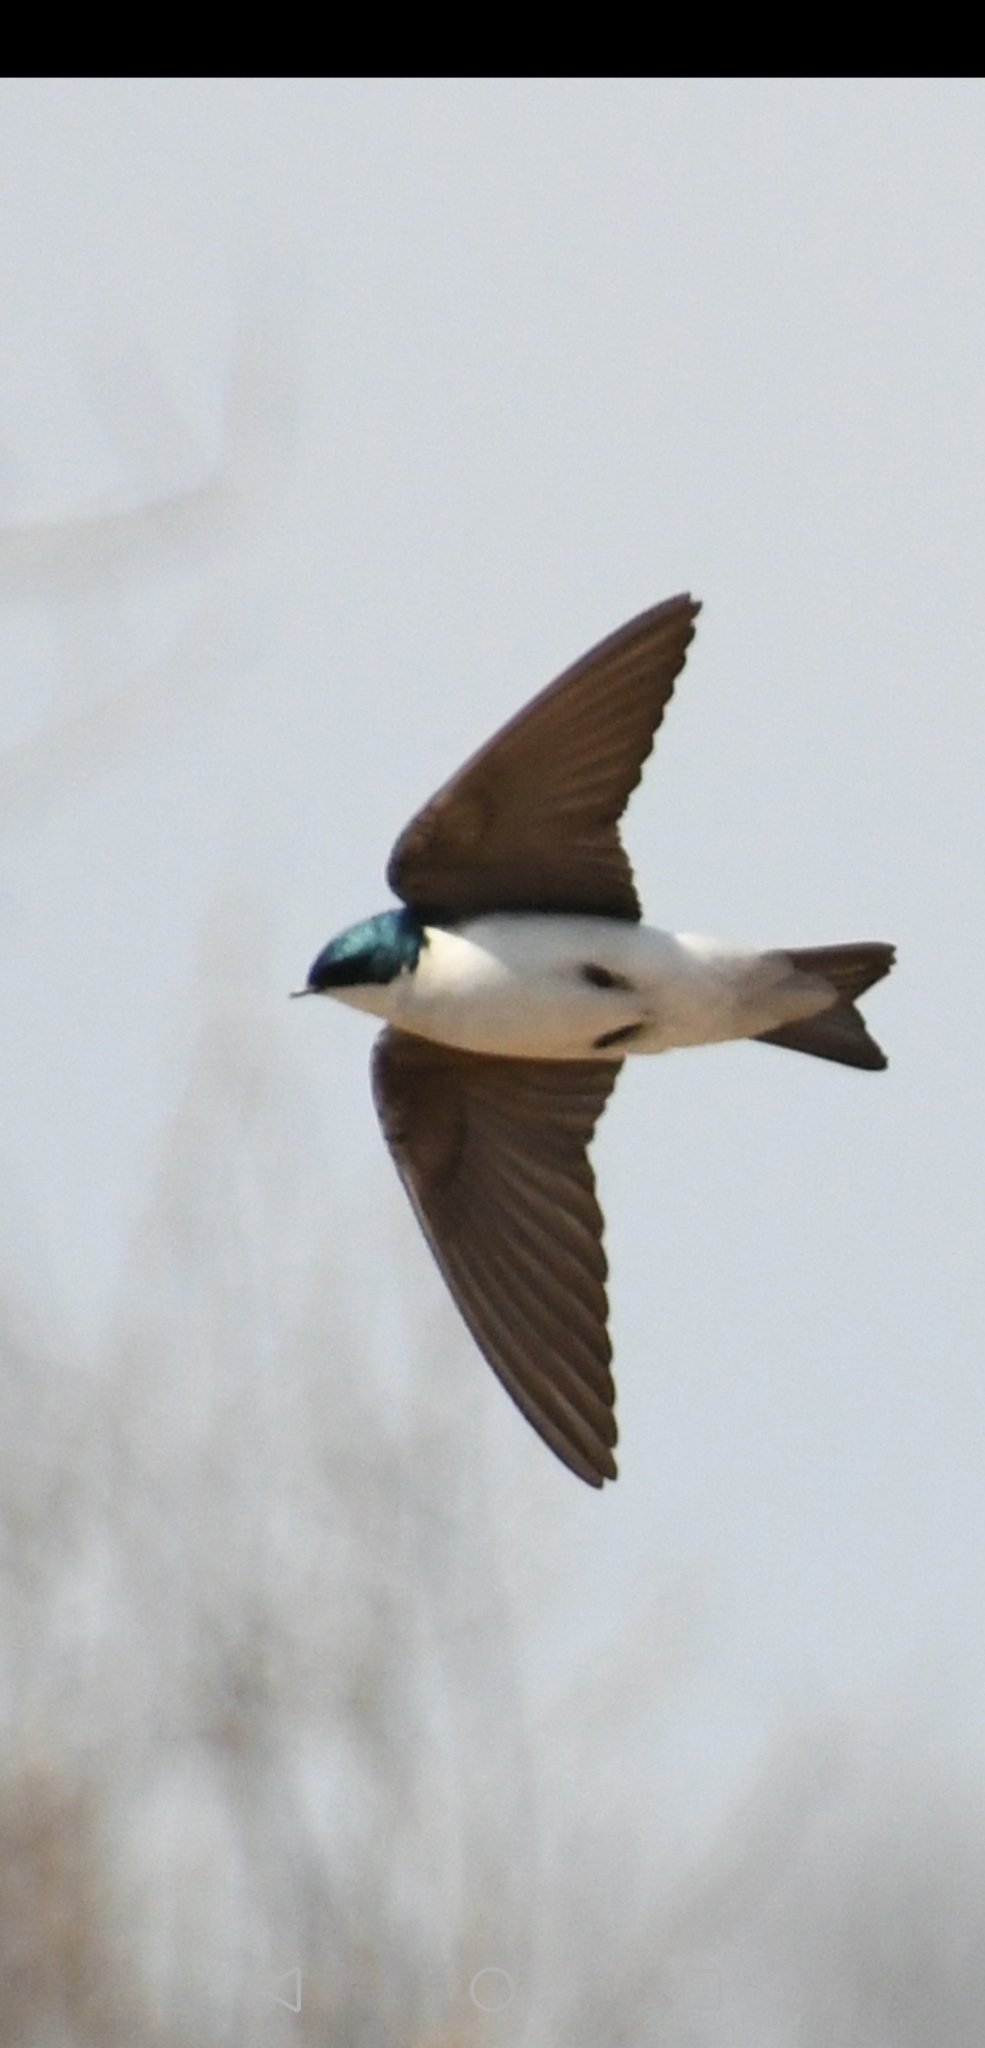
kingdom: Animalia
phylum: Chordata
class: Aves
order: Passeriformes
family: Hirundinidae
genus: Tachycineta
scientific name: Tachycineta bicolor
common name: Tree swallow
